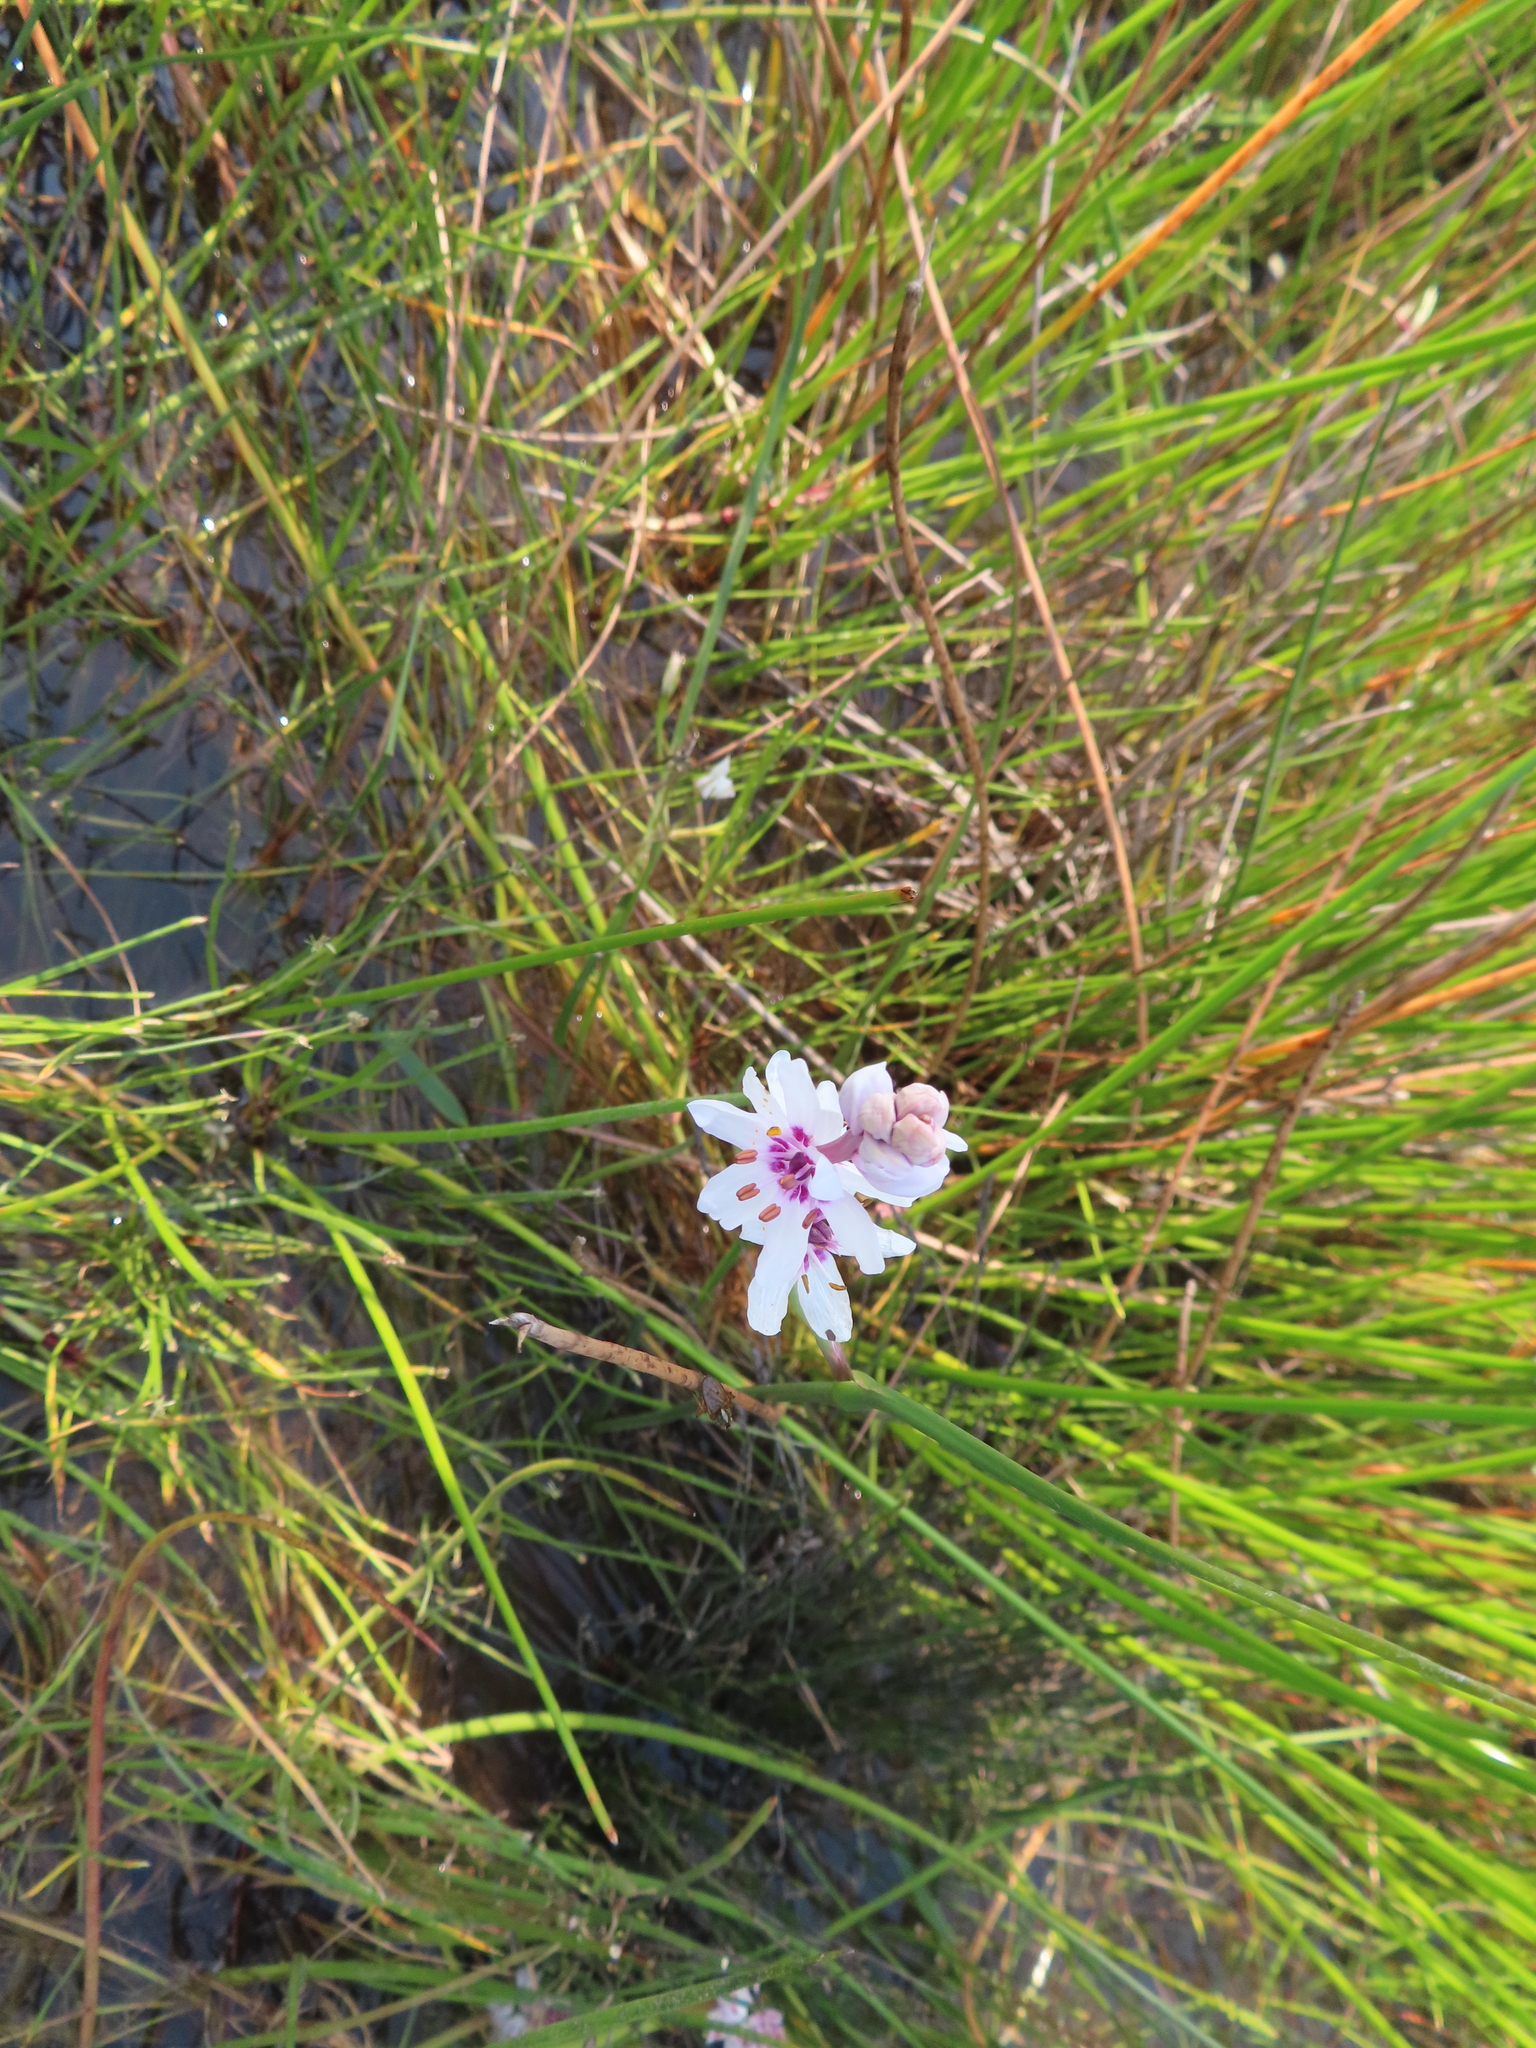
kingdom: Plantae
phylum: Tracheophyta
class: Liliopsida
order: Liliales
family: Colchicaceae
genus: Wurmbea
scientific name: Wurmbea stricta
